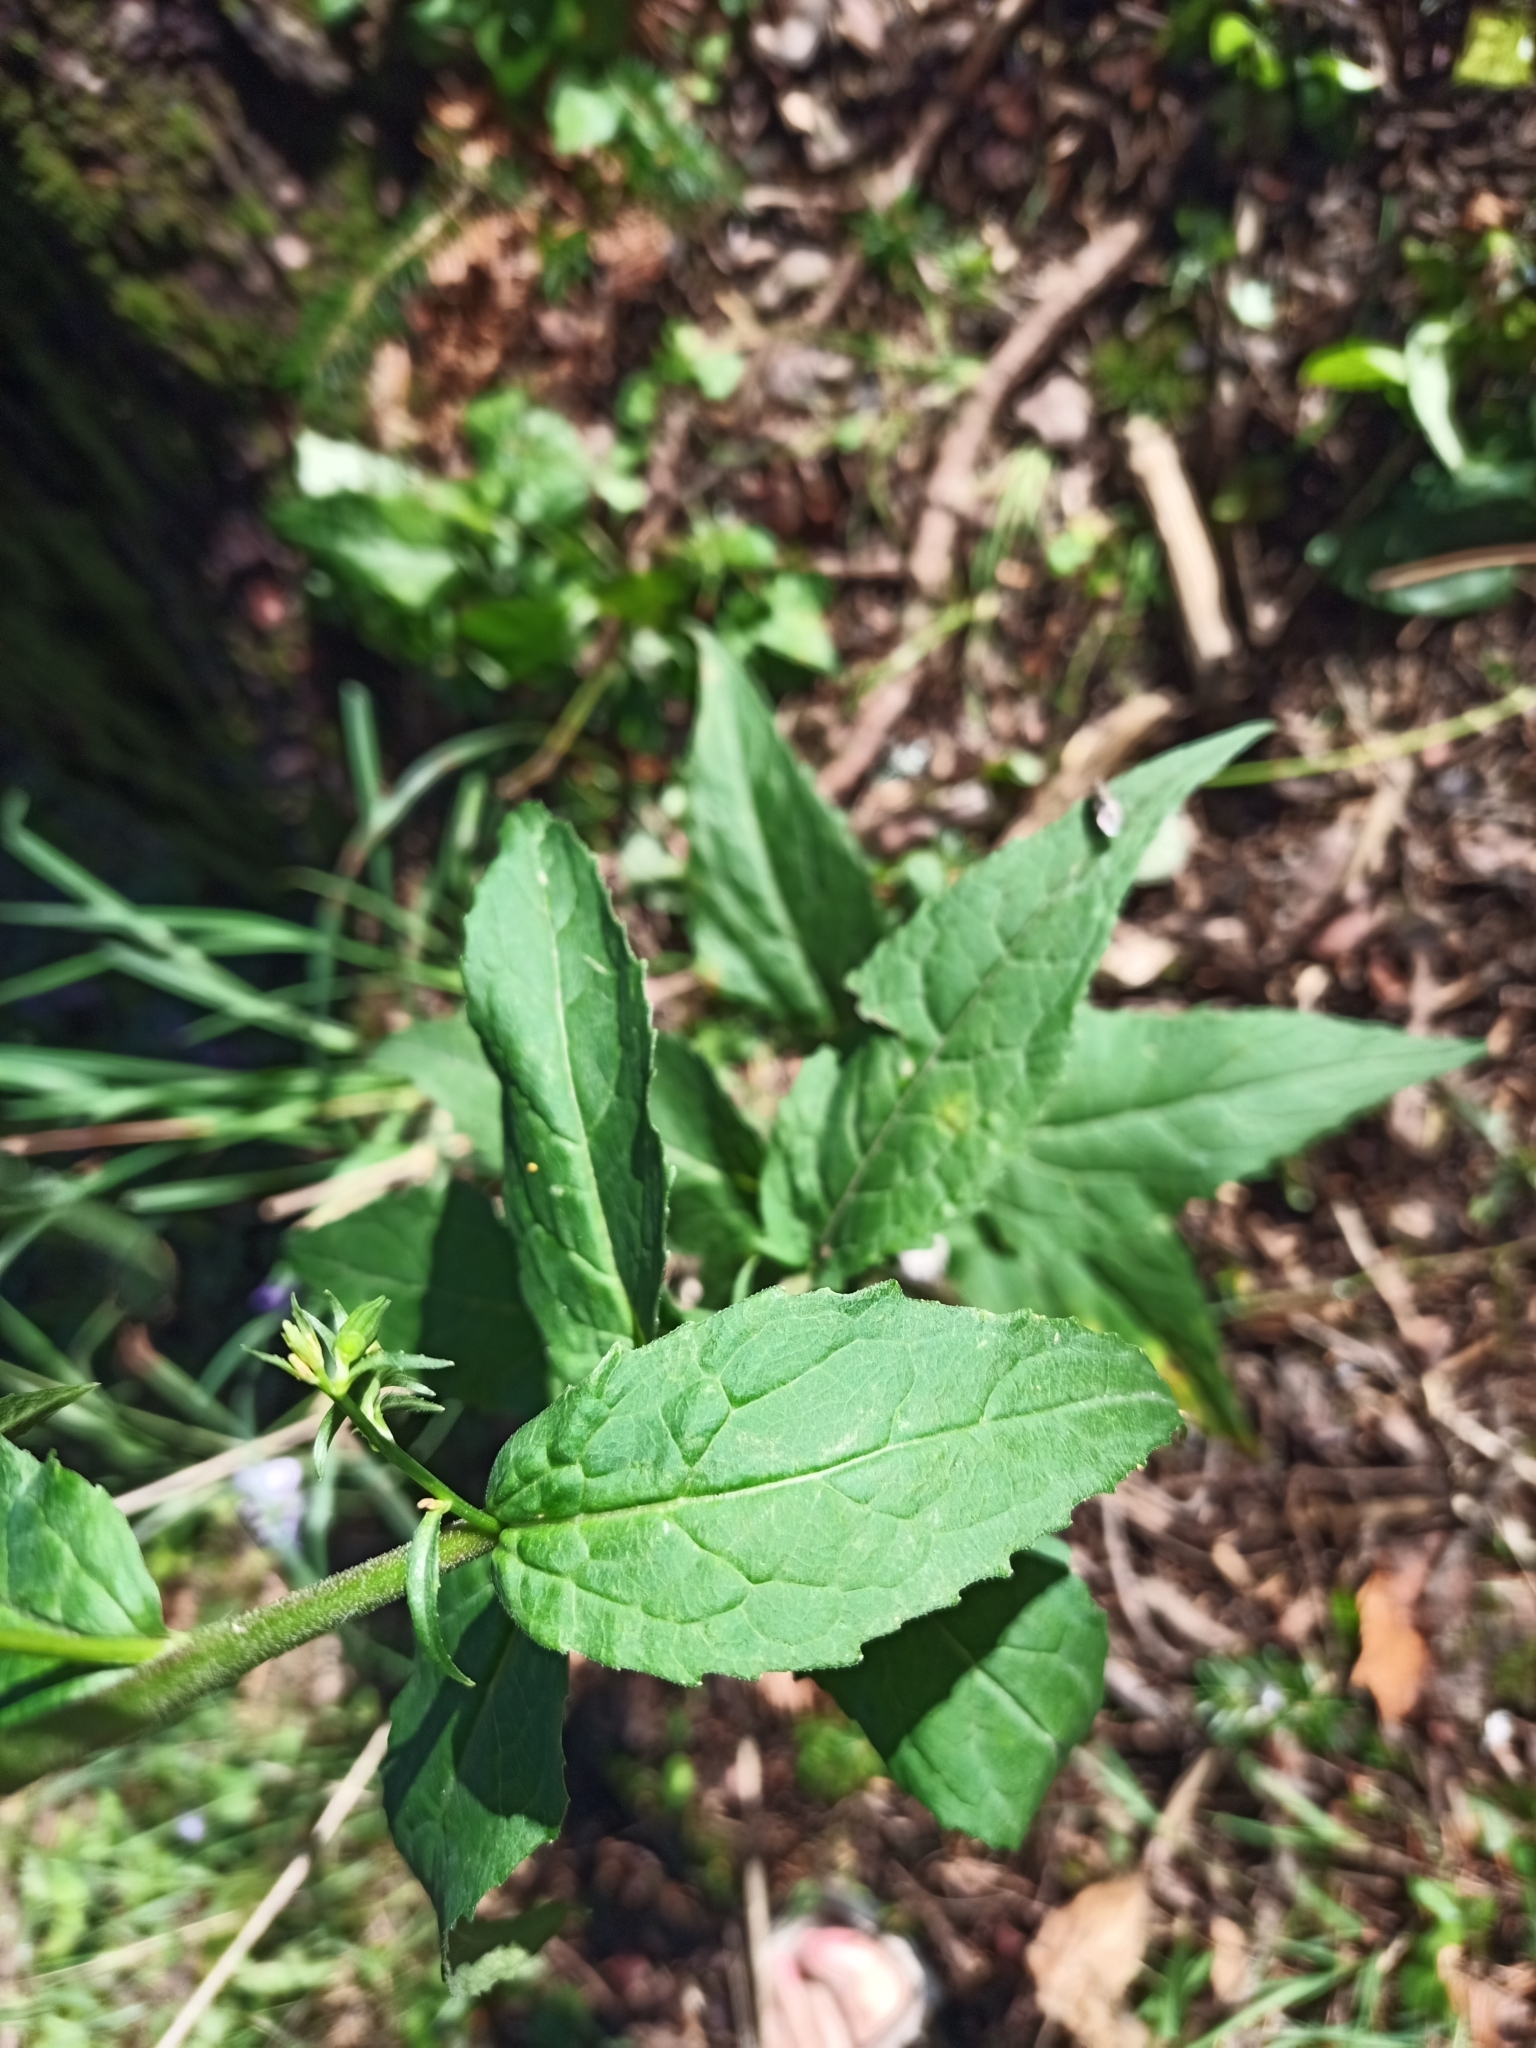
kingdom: Plantae
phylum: Tracheophyta
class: Magnoliopsida
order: Asterales
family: Campanulaceae
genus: Campanula
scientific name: Campanula trachelium
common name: Nettle-leaved bellflower
